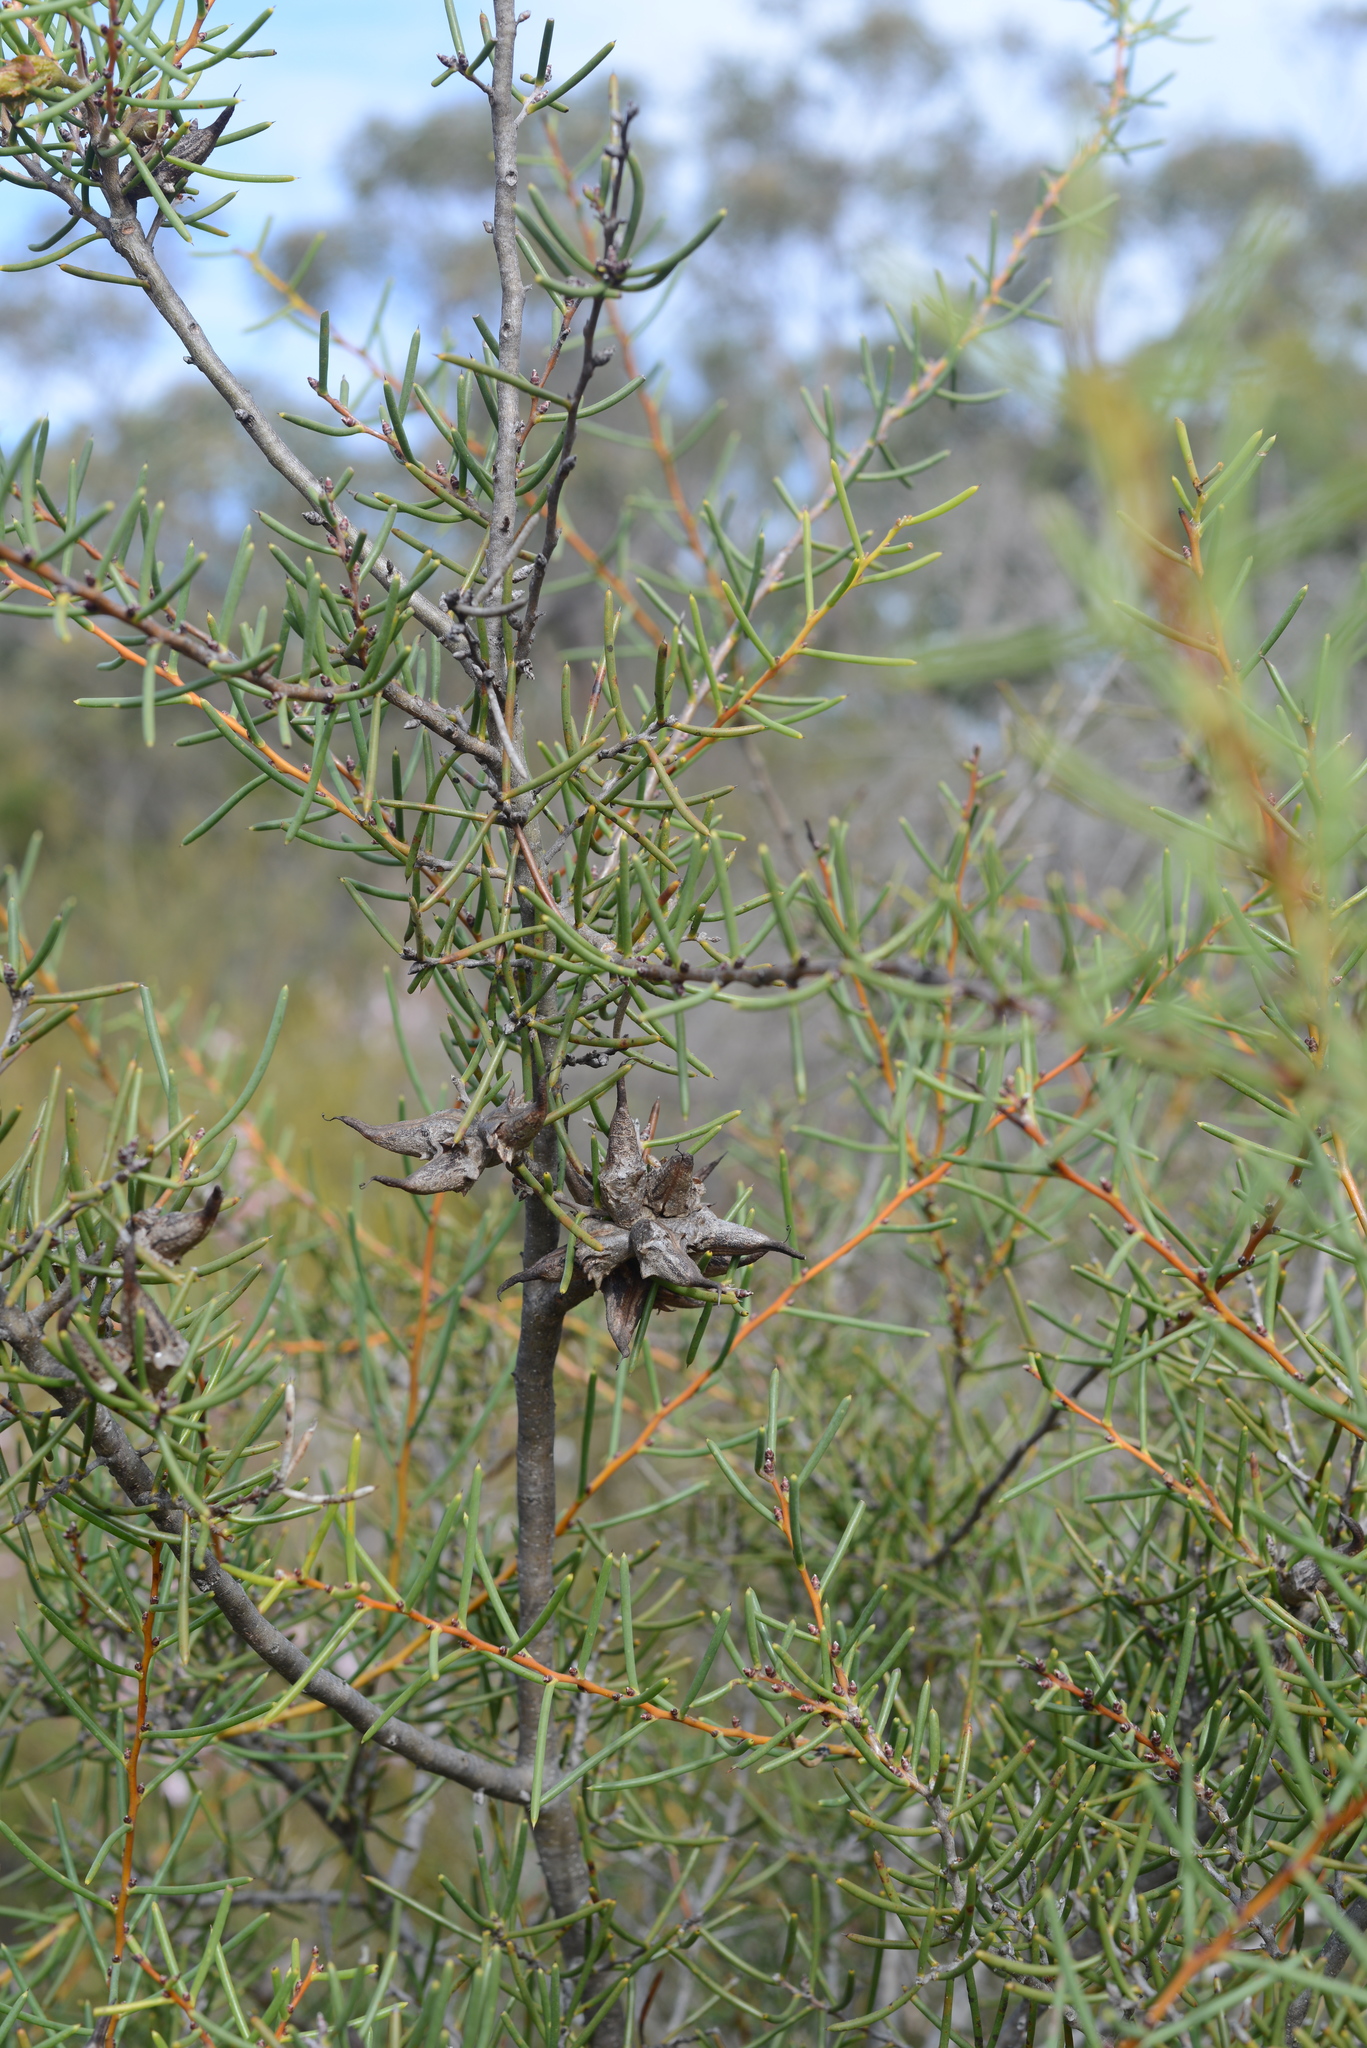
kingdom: Plantae
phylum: Tracheophyta
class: Magnoliopsida
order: Proteales
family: Proteaceae
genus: Hakea
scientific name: Hakea teretifolia
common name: Dagger hakea
